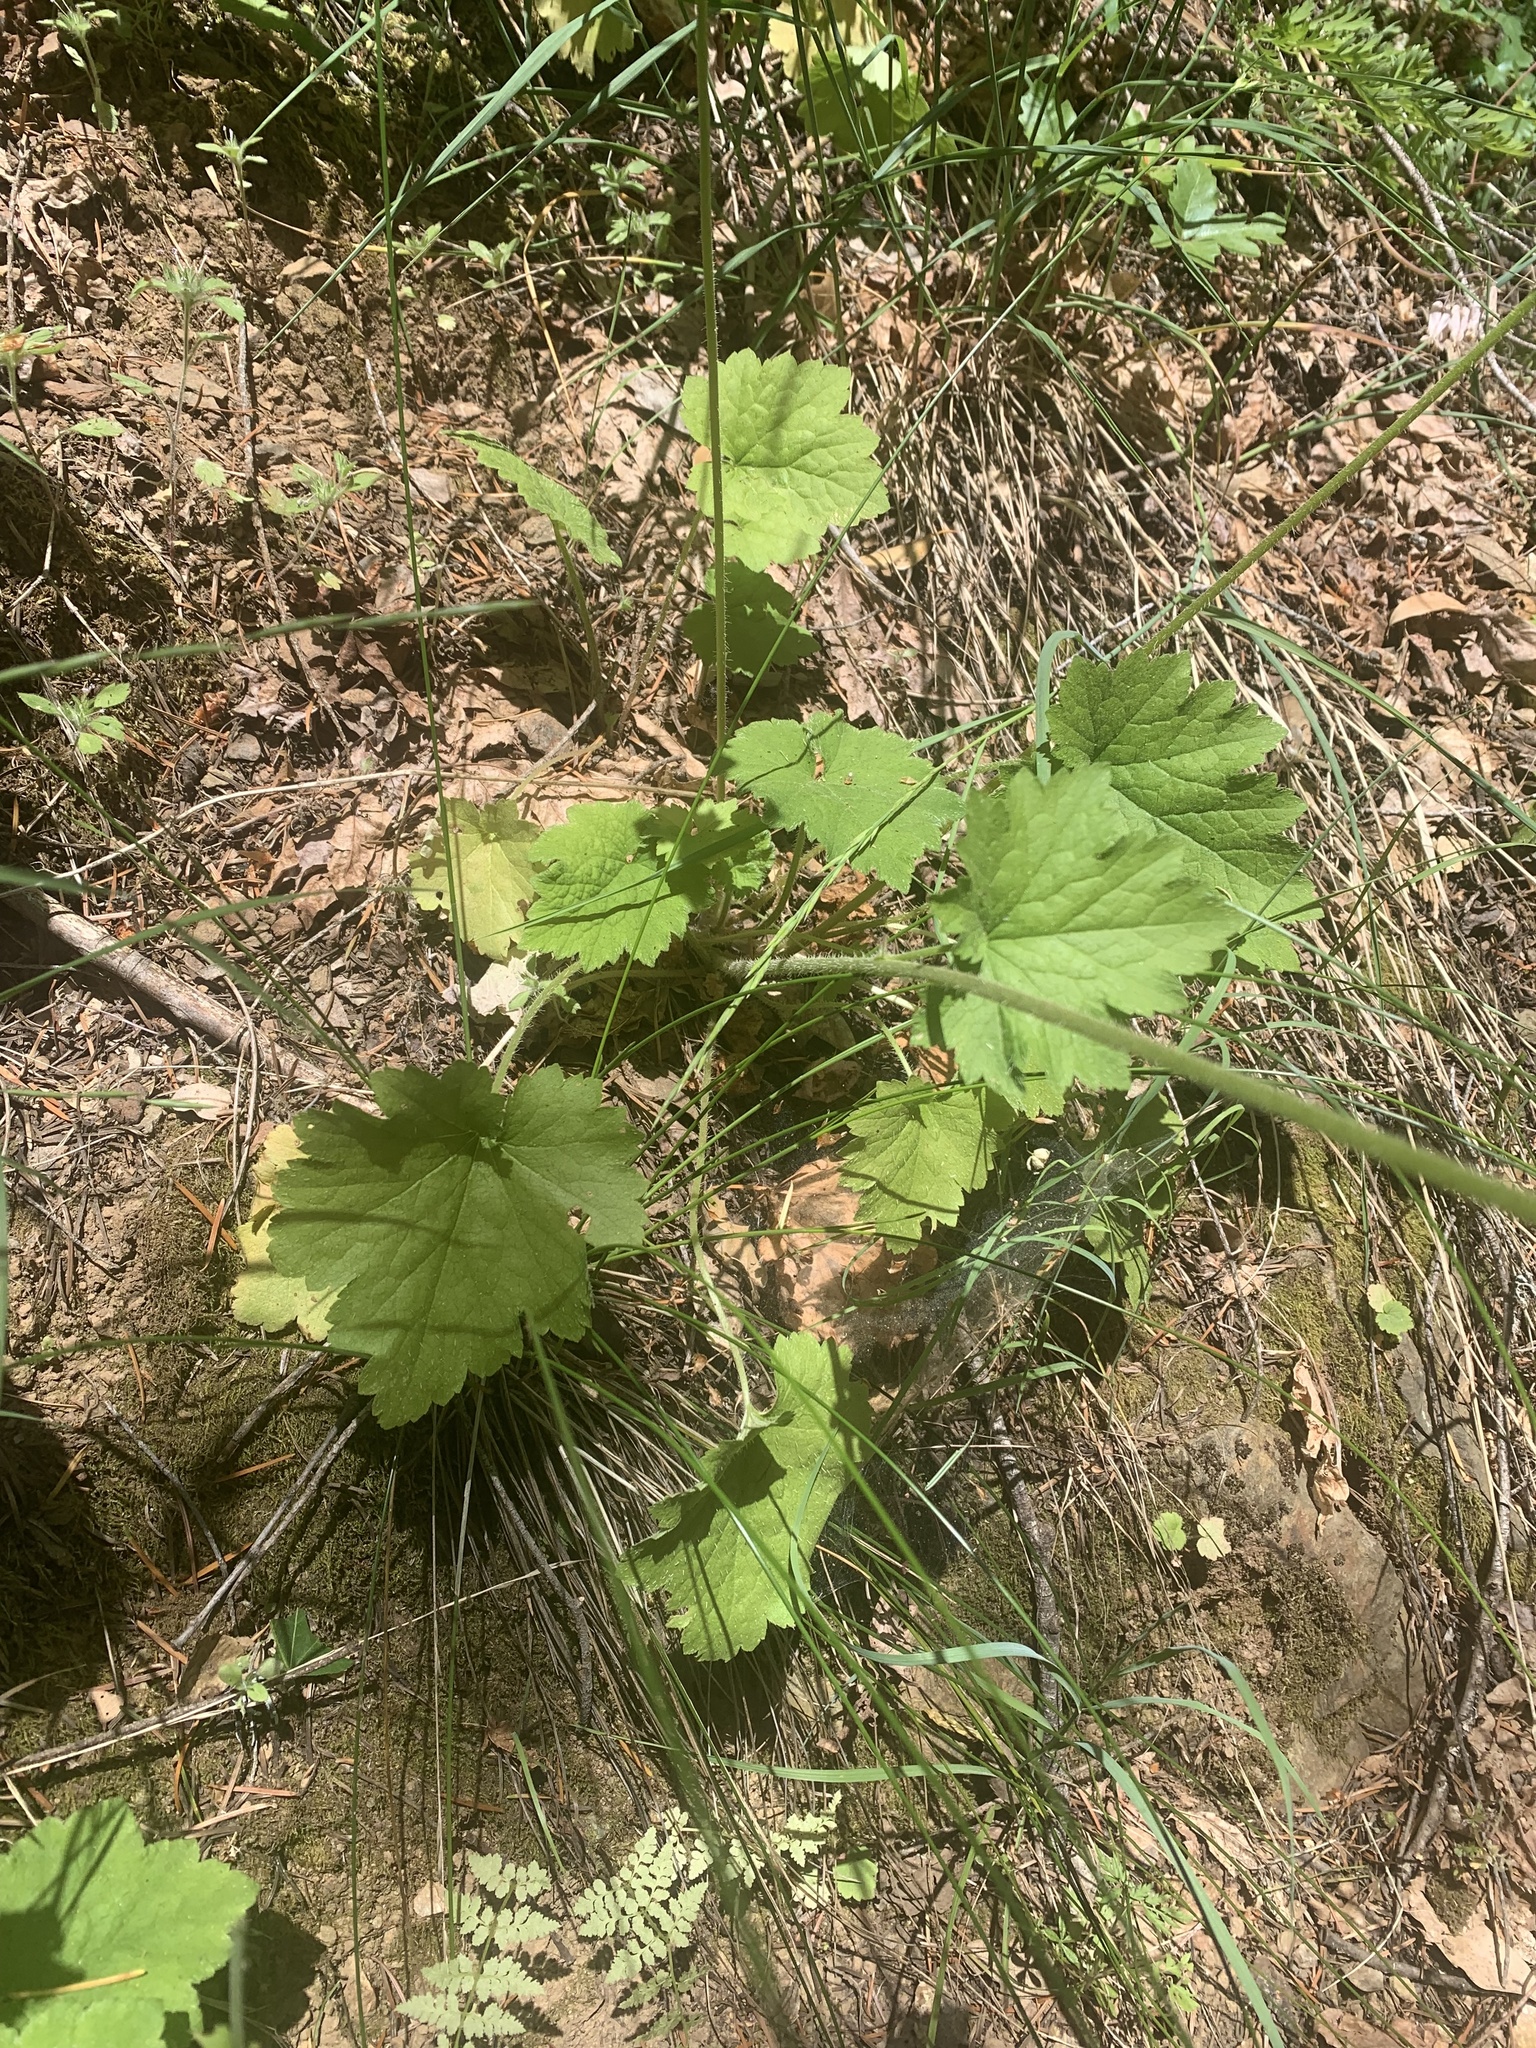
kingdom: Plantae
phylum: Tracheophyta
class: Magnoliopsida
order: Saxifragales
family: Saxifragaceae
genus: Tellima
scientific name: Tellima grandiflora
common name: Fringecups
